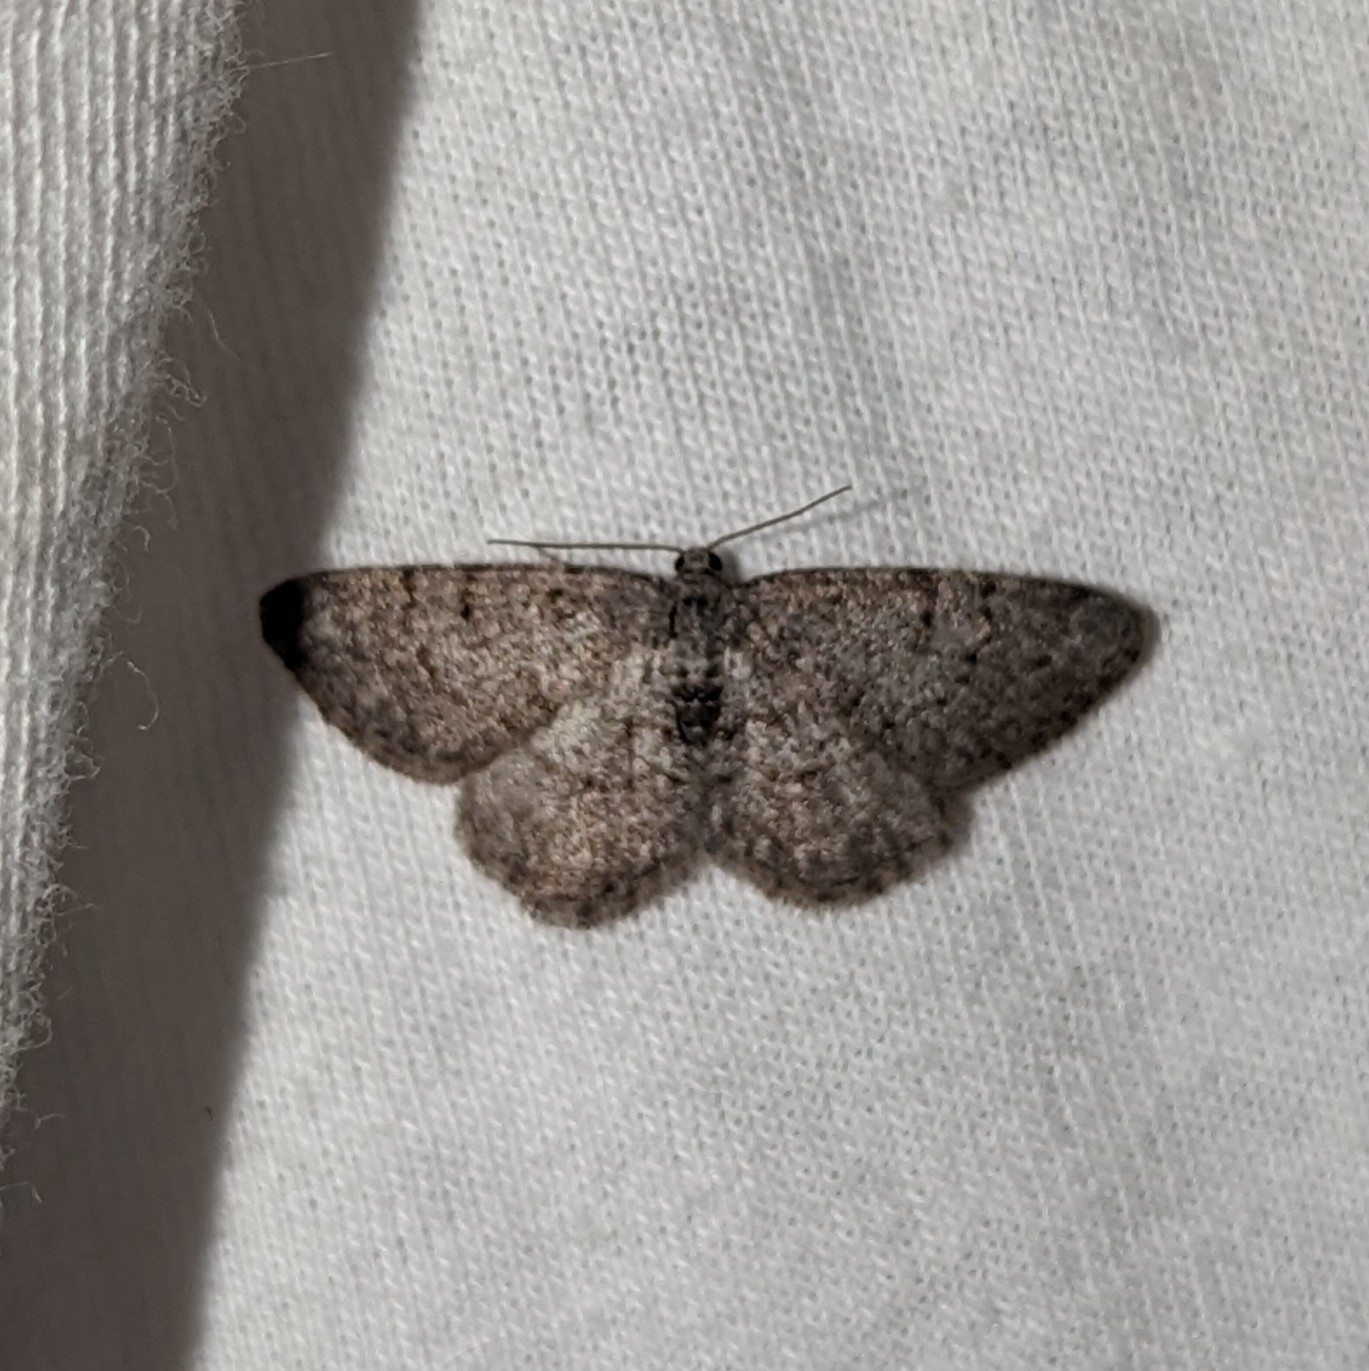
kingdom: Animalia
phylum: Arthropoda
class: Insecta
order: Lepidoptera
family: Geometridae
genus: Aethalura
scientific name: Aethalura intertexta
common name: Four-barred gray
